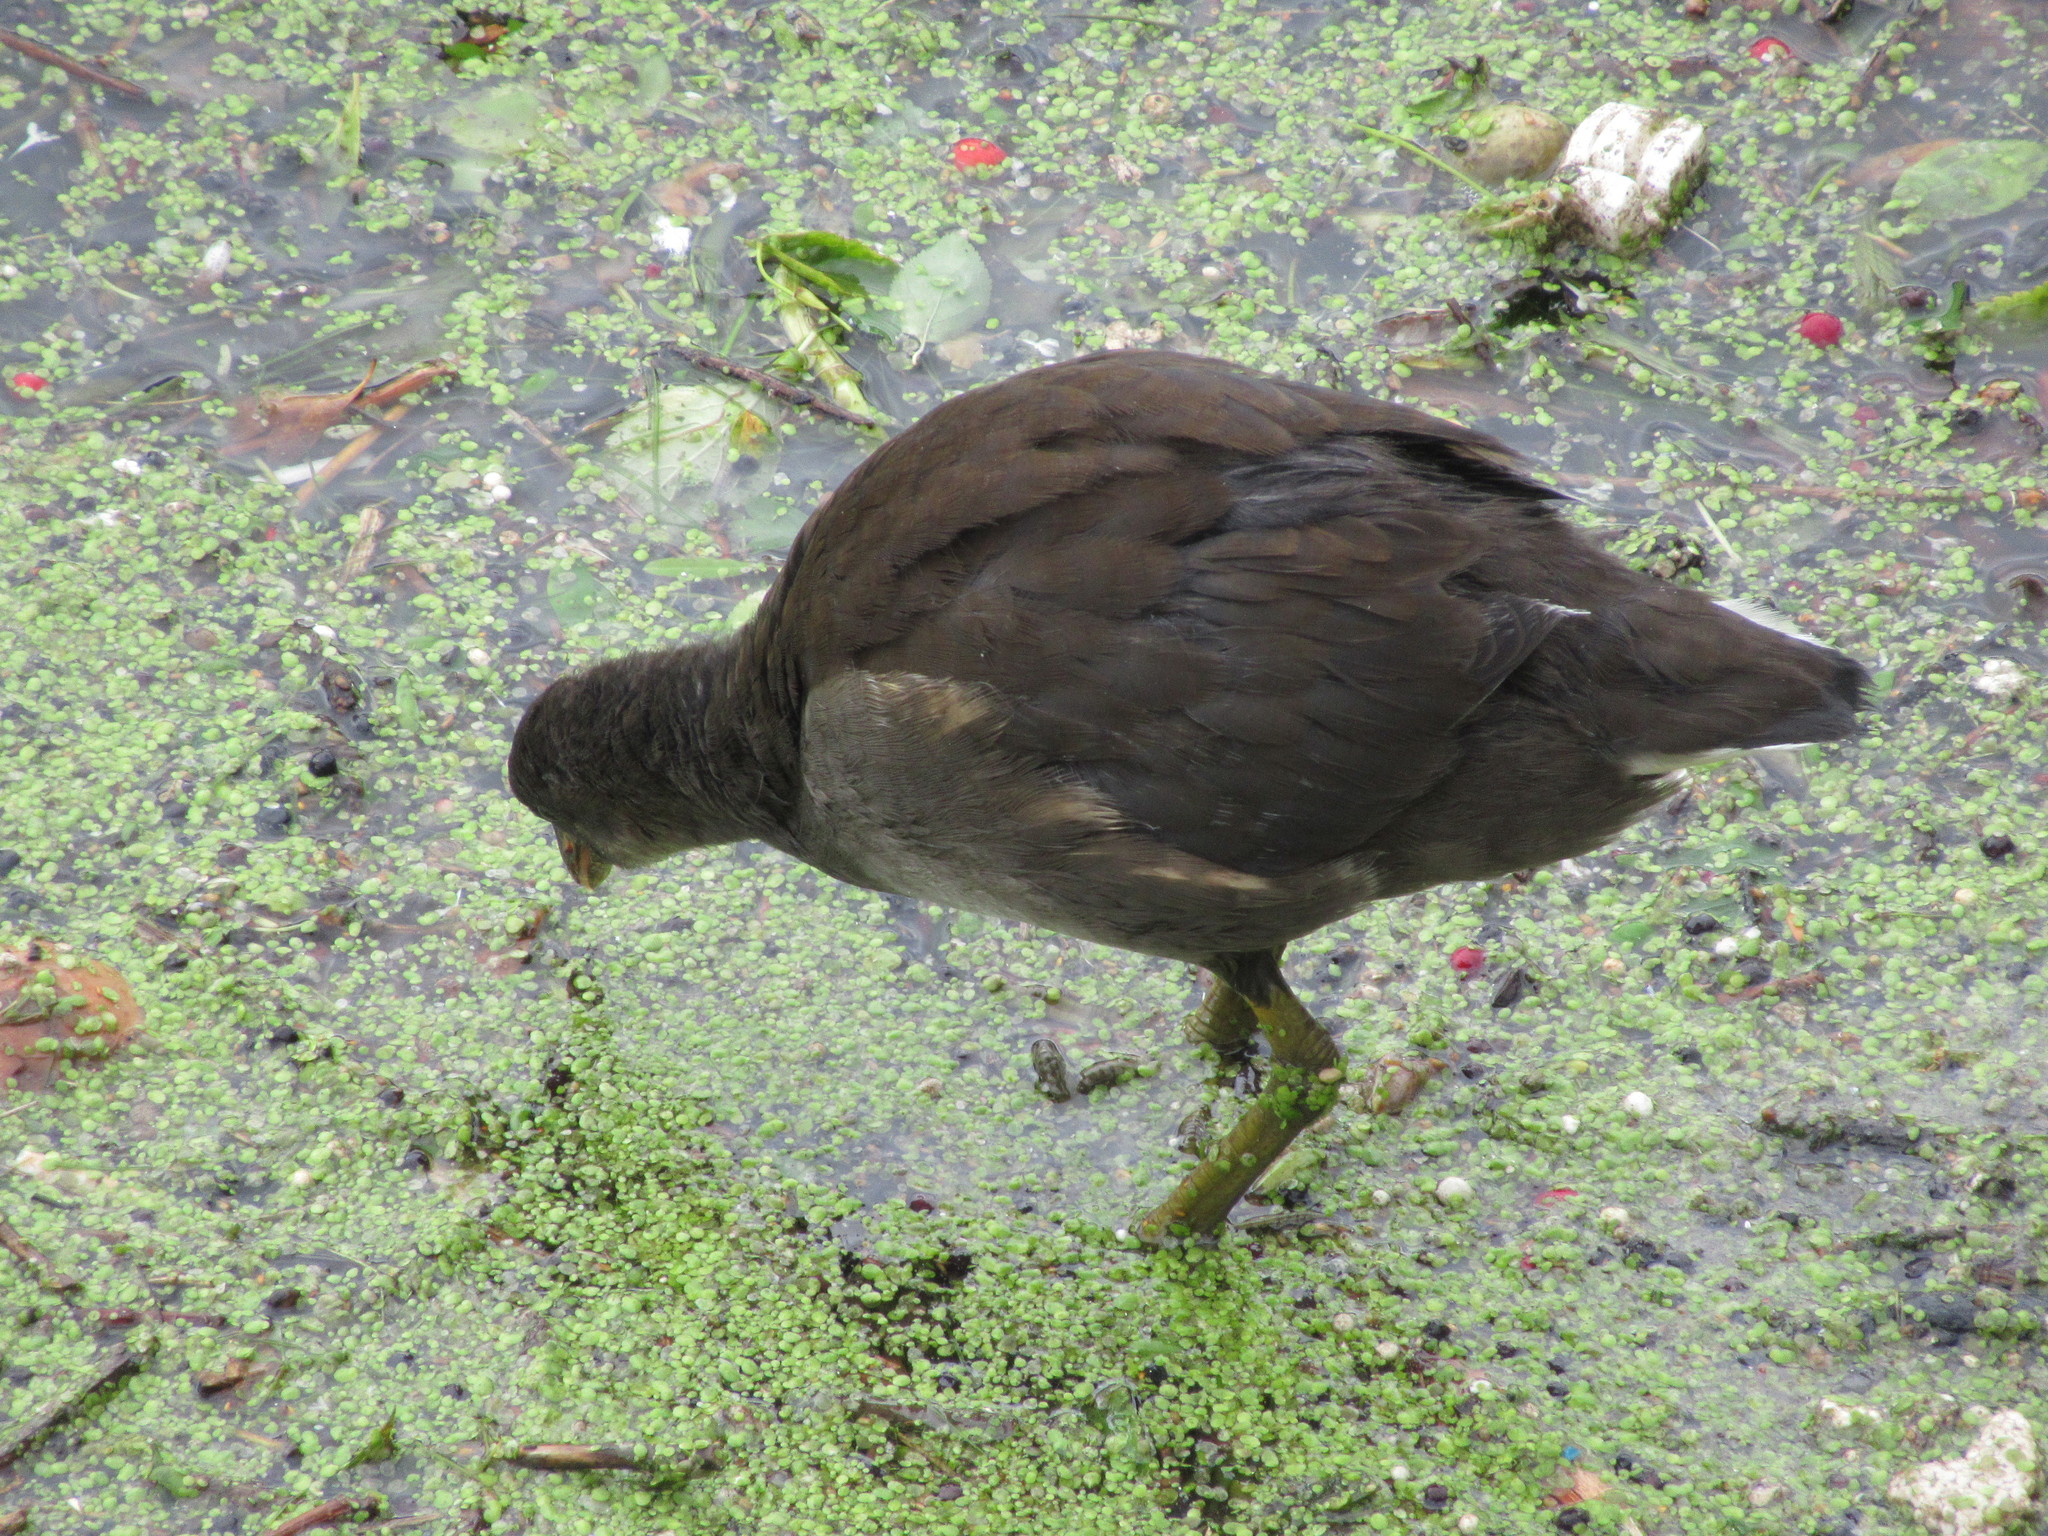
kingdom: Animalia
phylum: Chordata
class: Aves
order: Gruiformes
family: Rallidae
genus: Gallinula
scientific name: Gallinula chloropus
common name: Common moorhen
